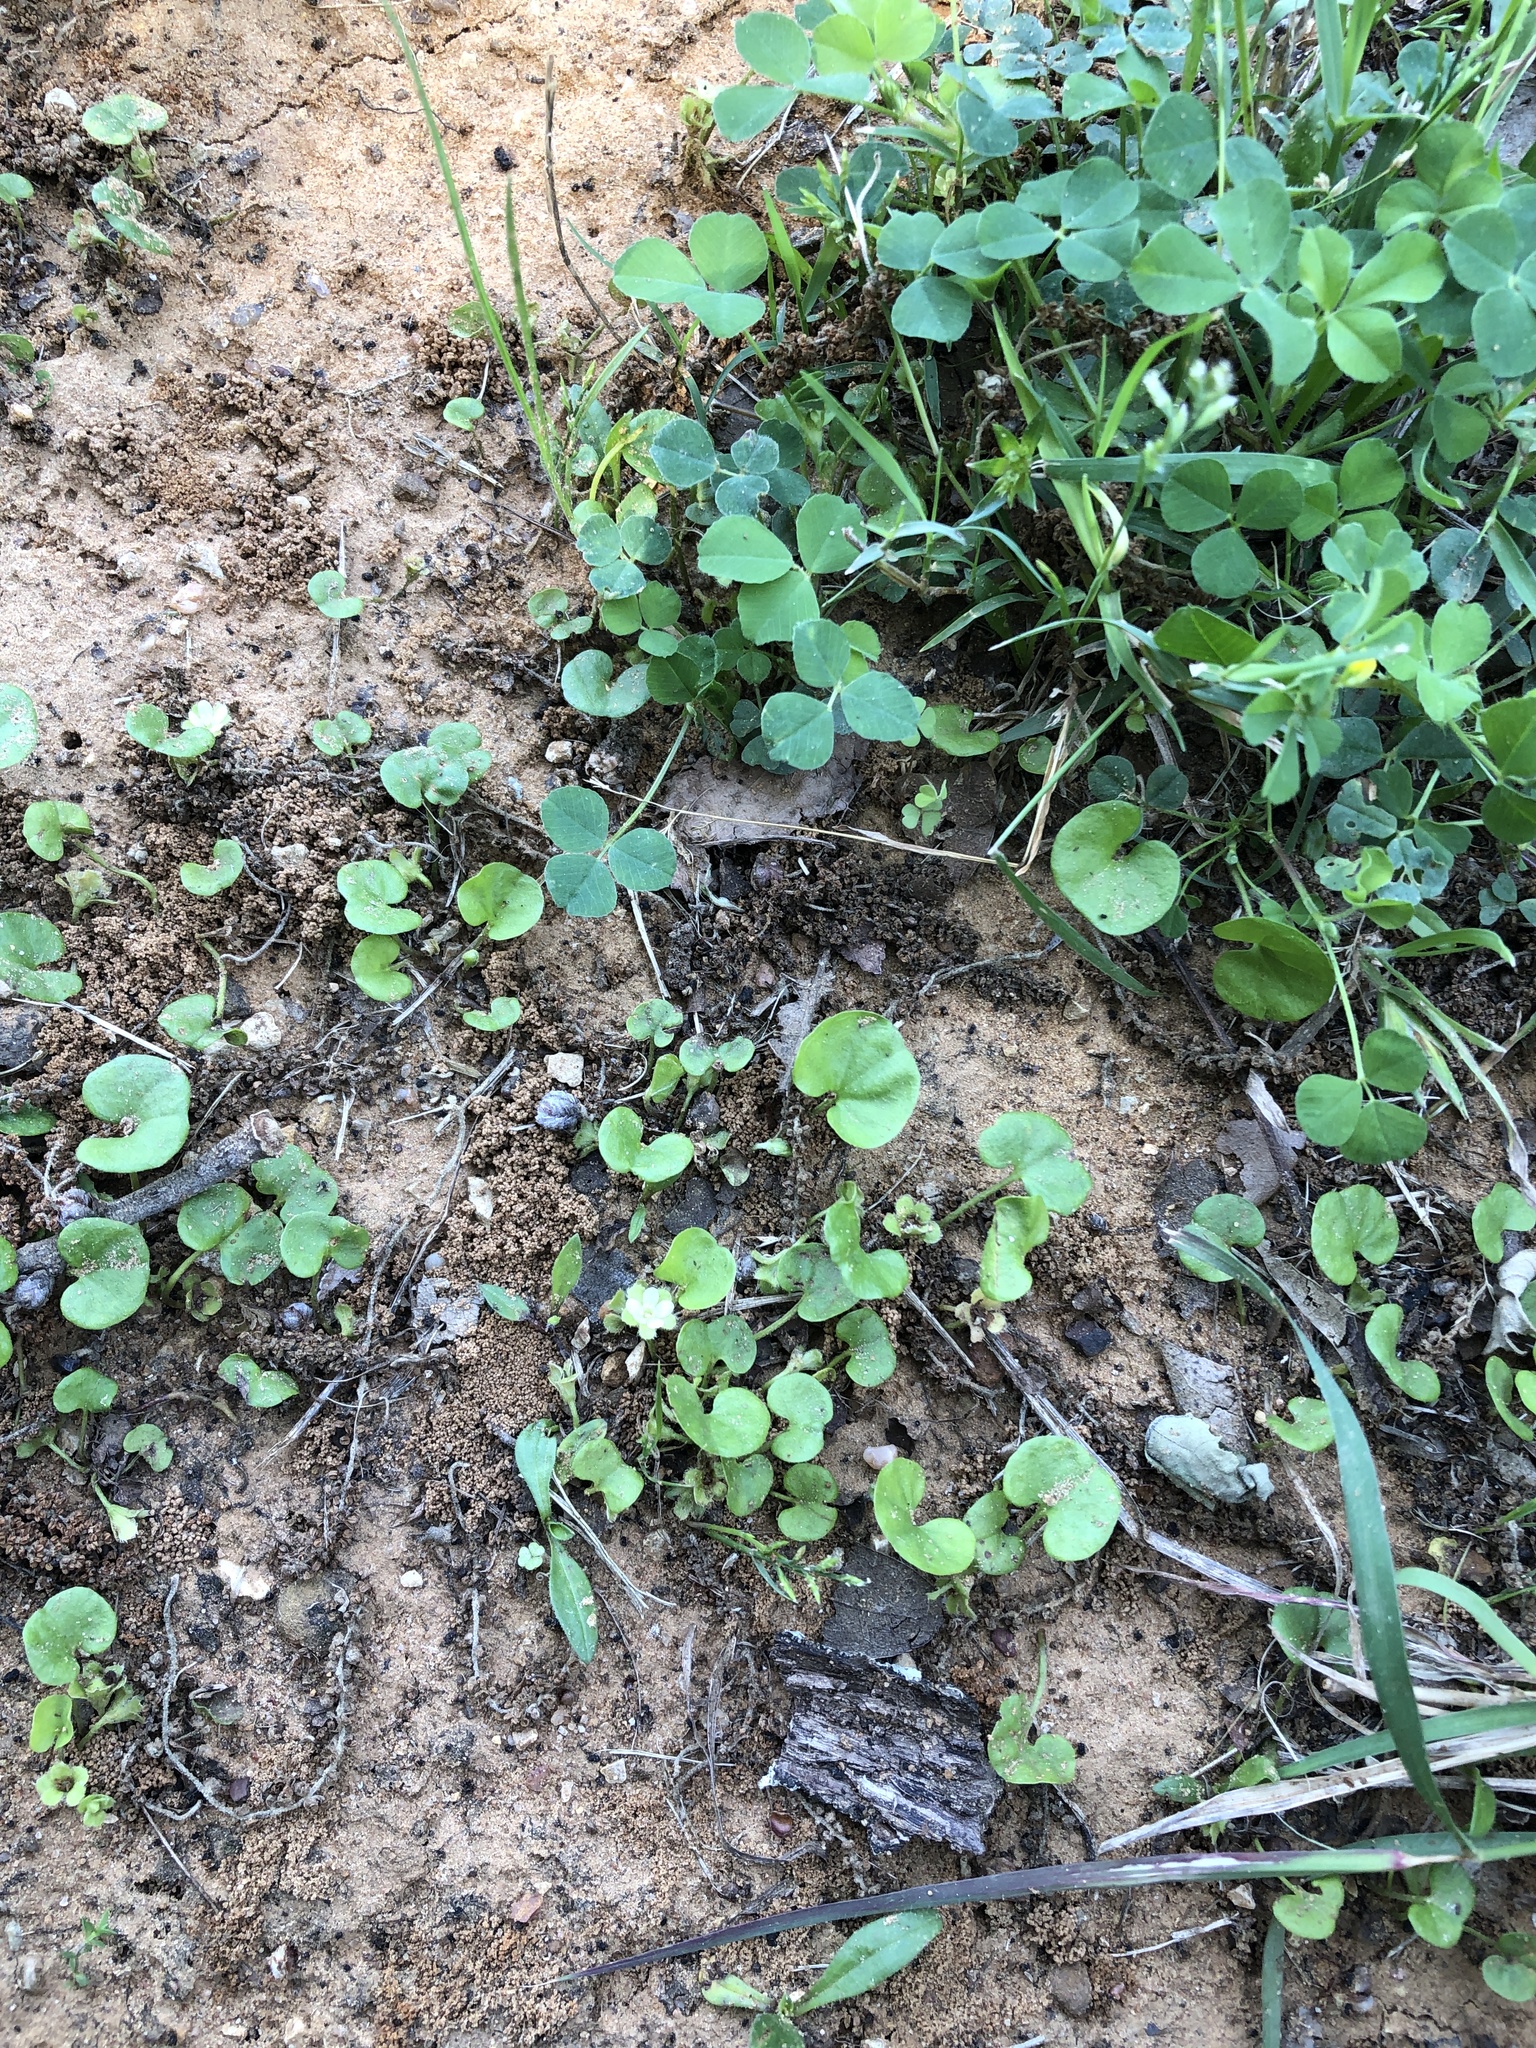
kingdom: Plantae
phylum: Tracheophyta
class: Magnoliopsida
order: Solanales
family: Convolvulaceae
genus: Dichondra
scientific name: Dichondra carolinensis
